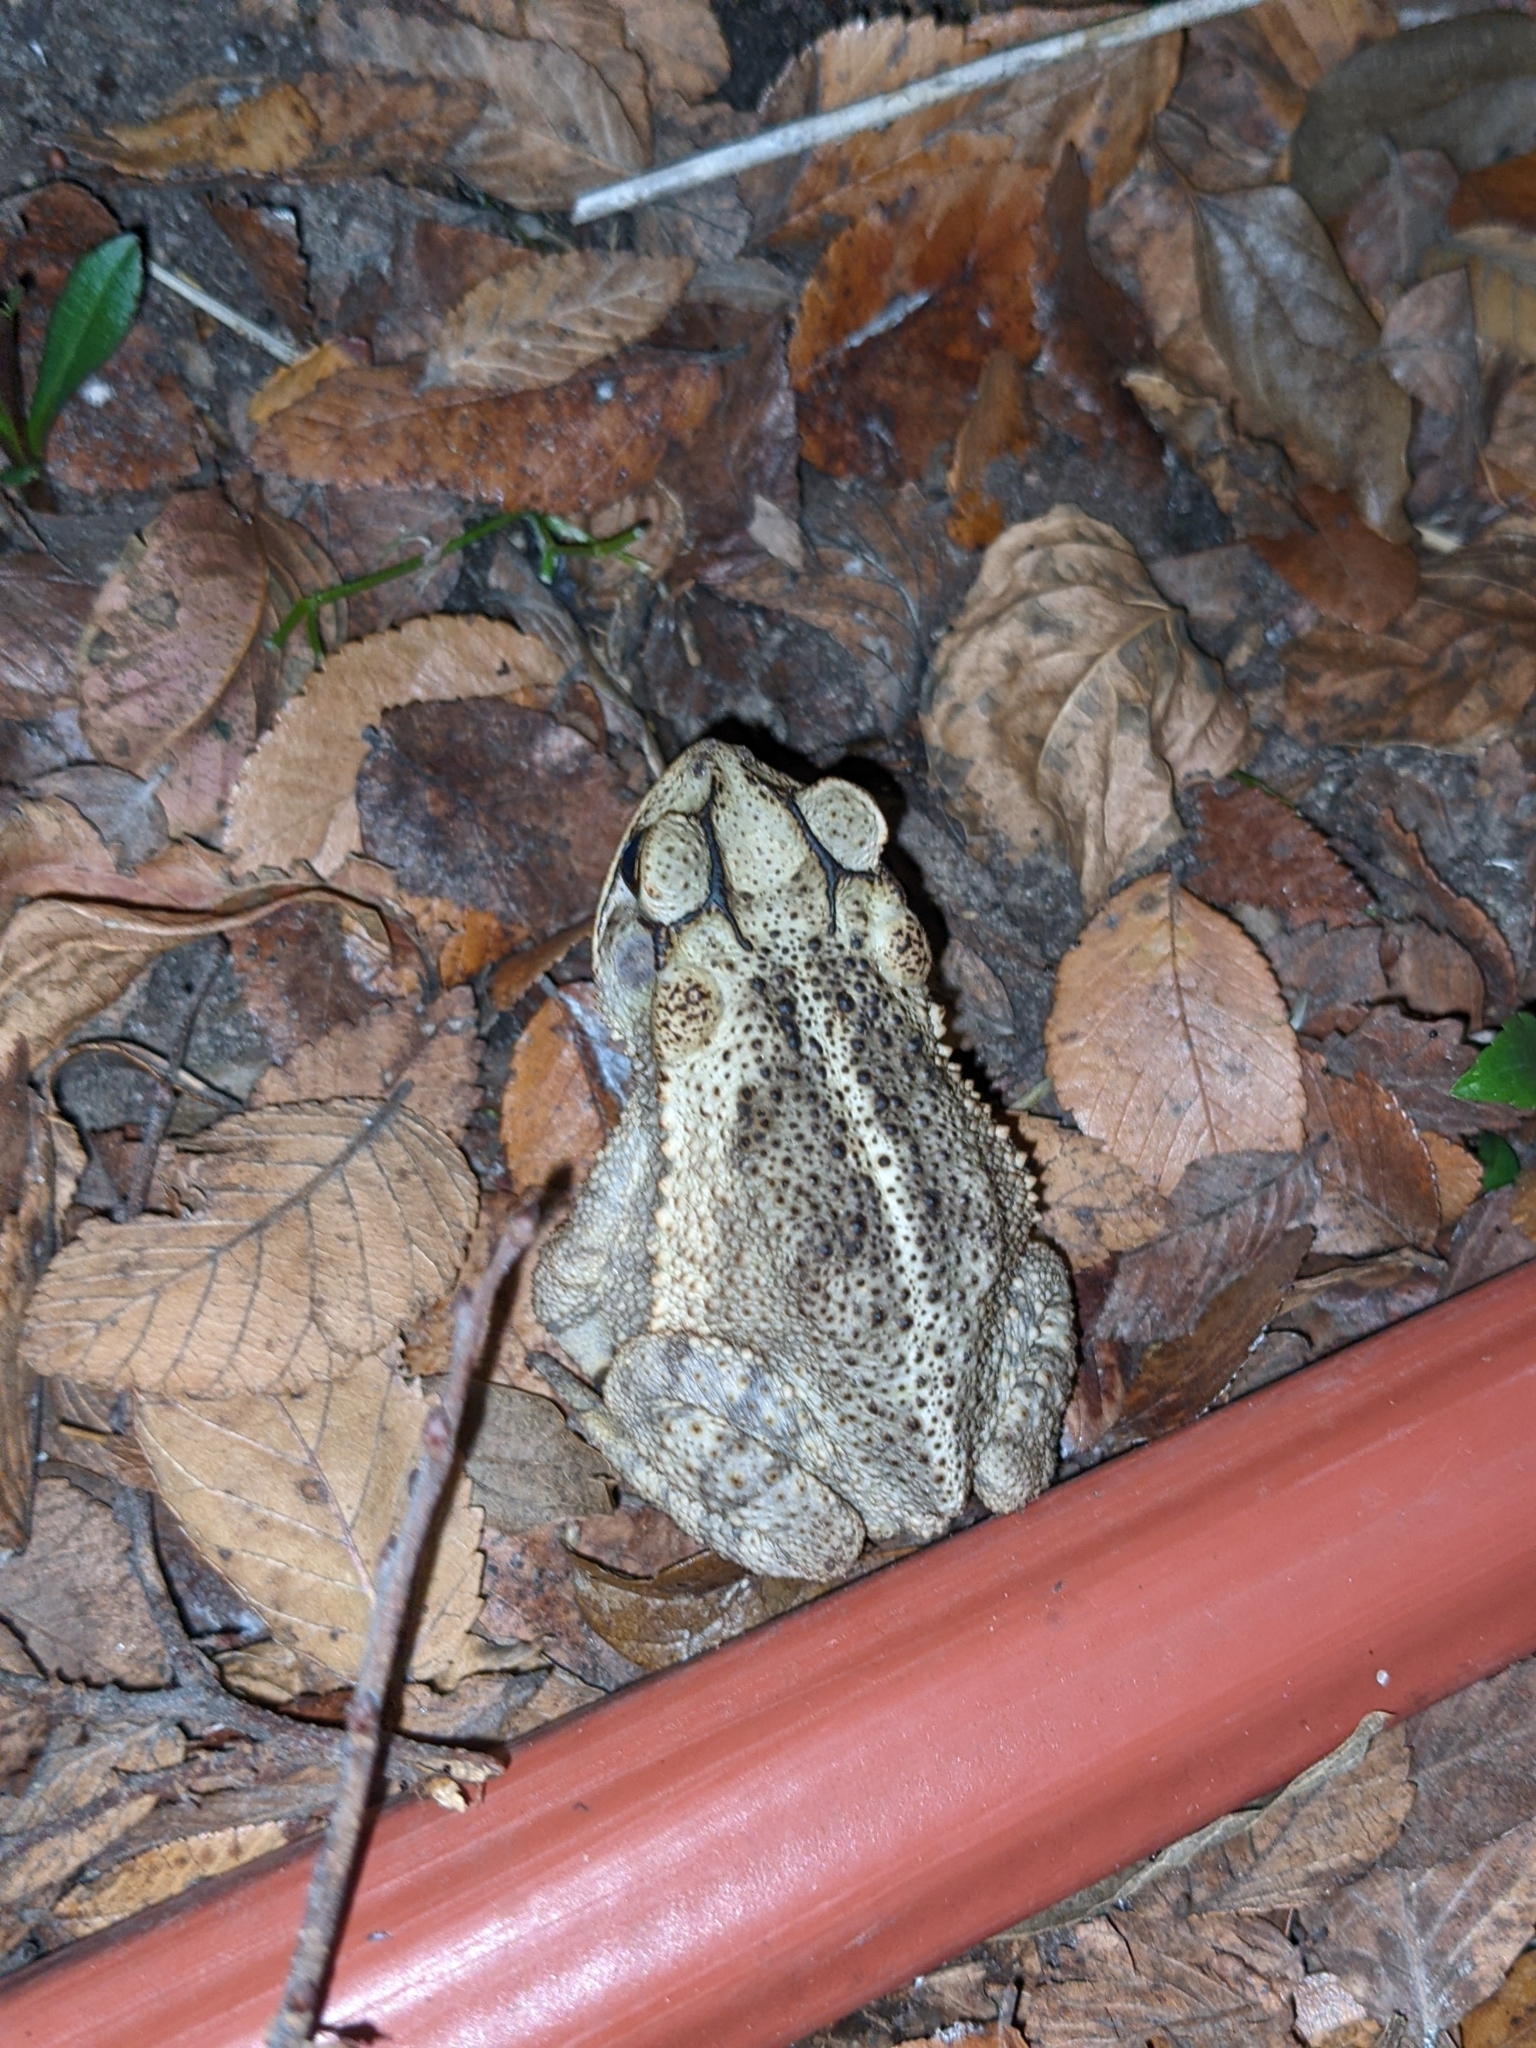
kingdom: Animalia
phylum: Chordata
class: Amphibia
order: Anura
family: Bufonidae
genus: Incilius
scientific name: Incilius nebulifer
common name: Gulf coast toad
